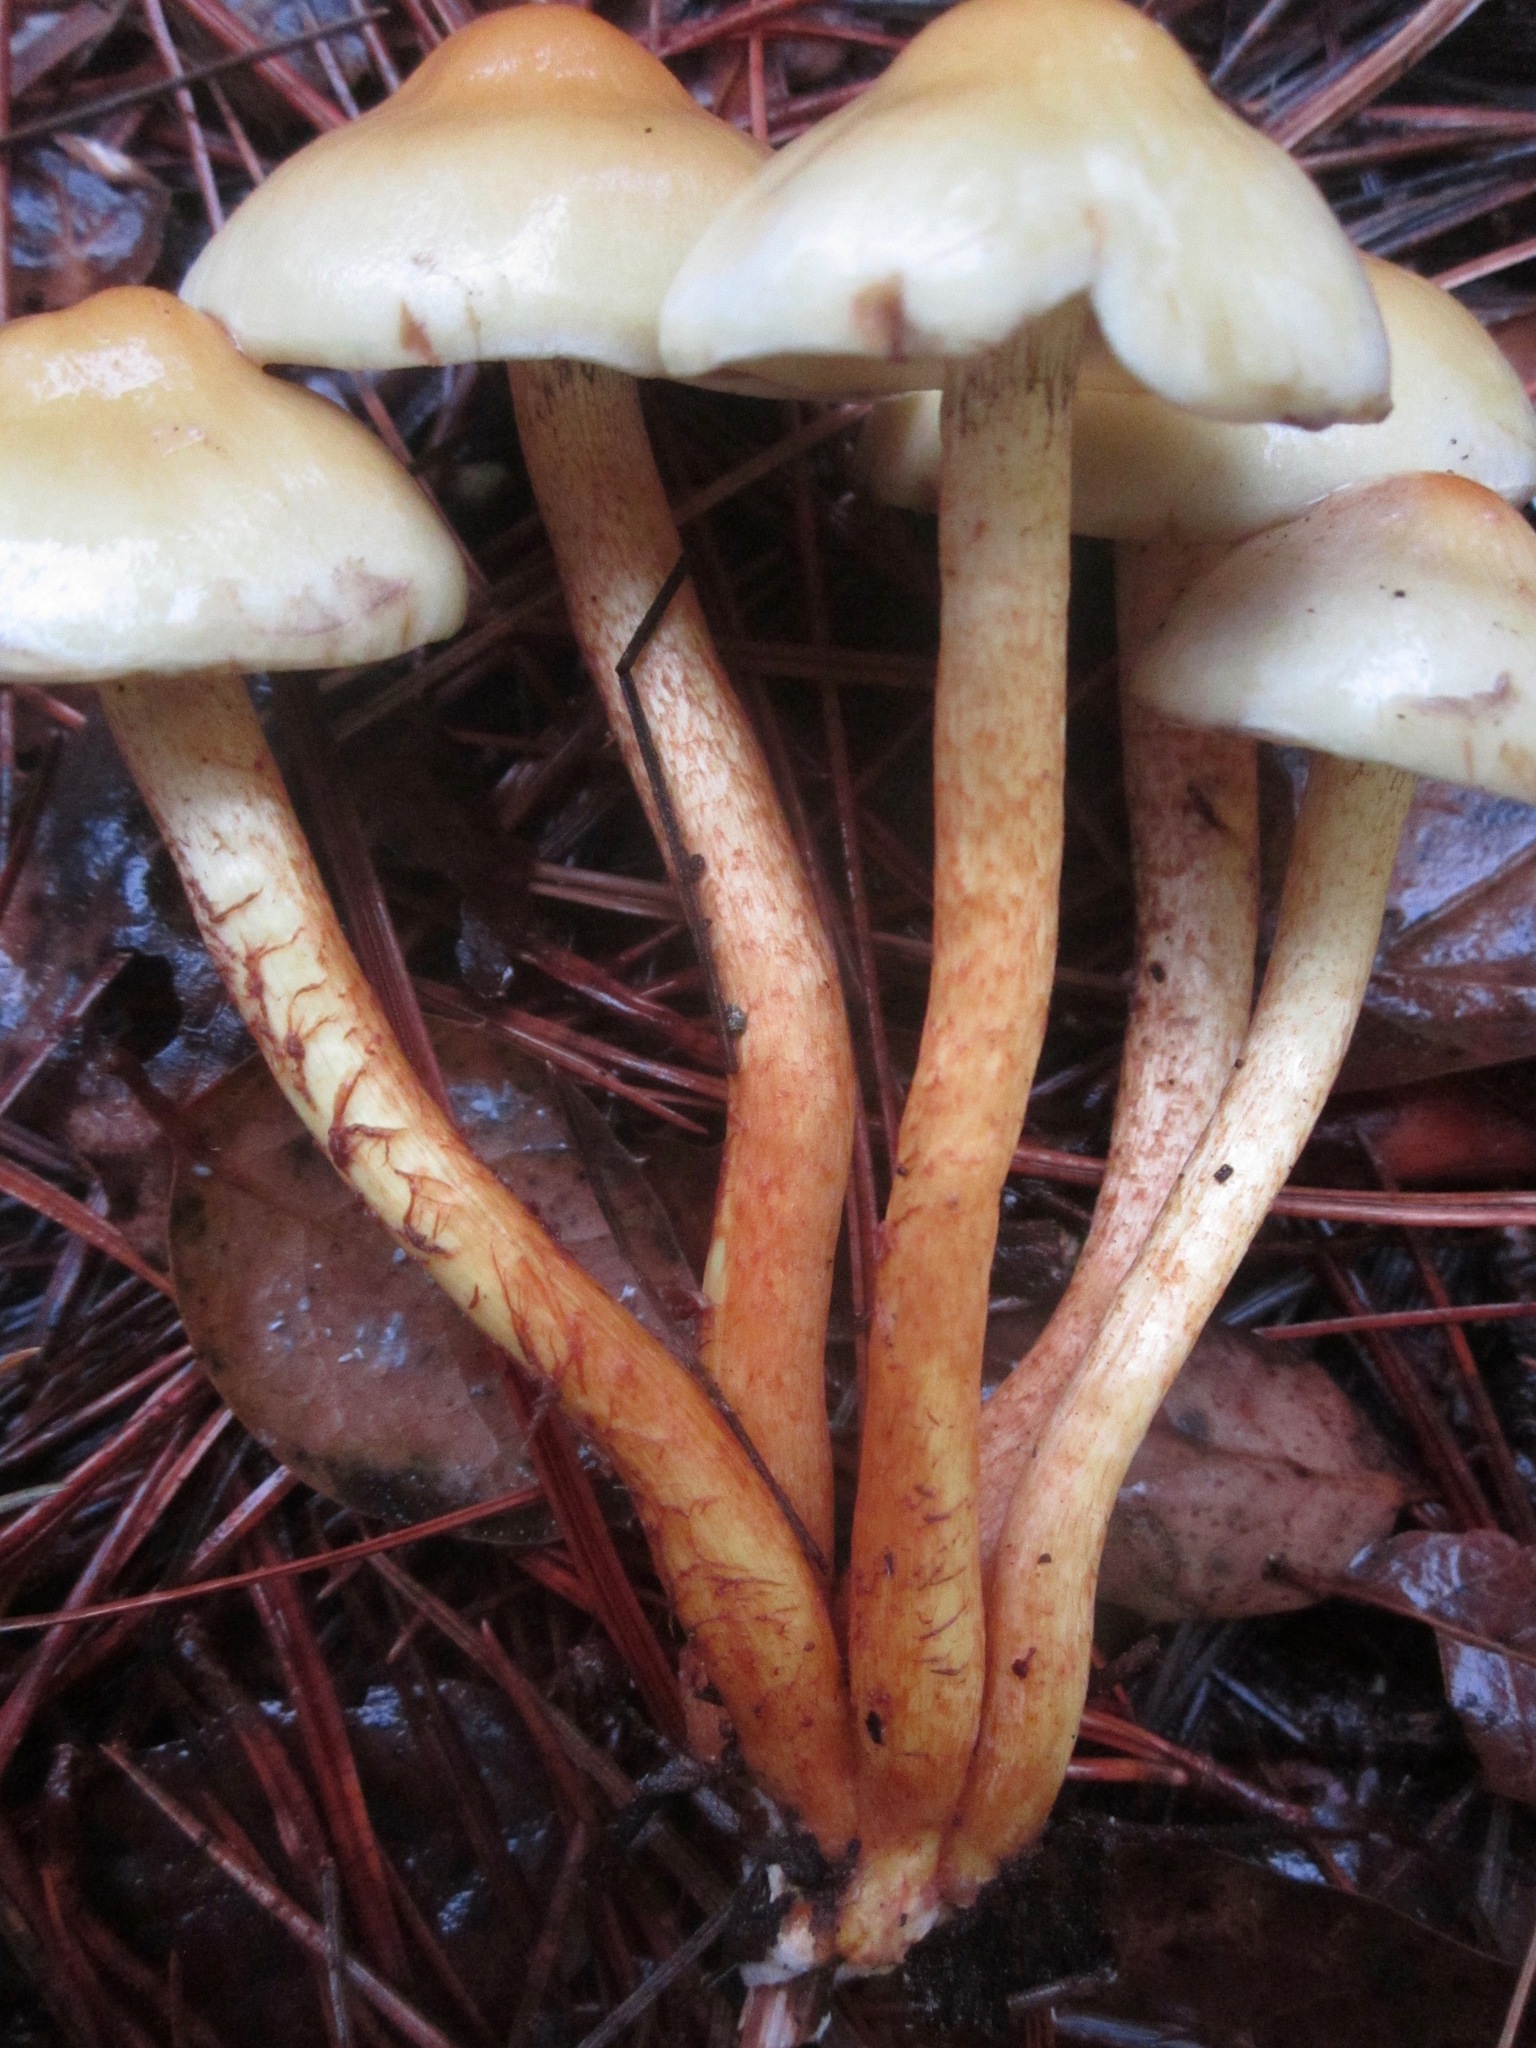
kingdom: Fungi
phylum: Basidiomycota
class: Agaricomycetes
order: Agaricales
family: Strophariaceae
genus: Hypholoma
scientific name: Hypholoma capnoides
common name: Conifer tuft
